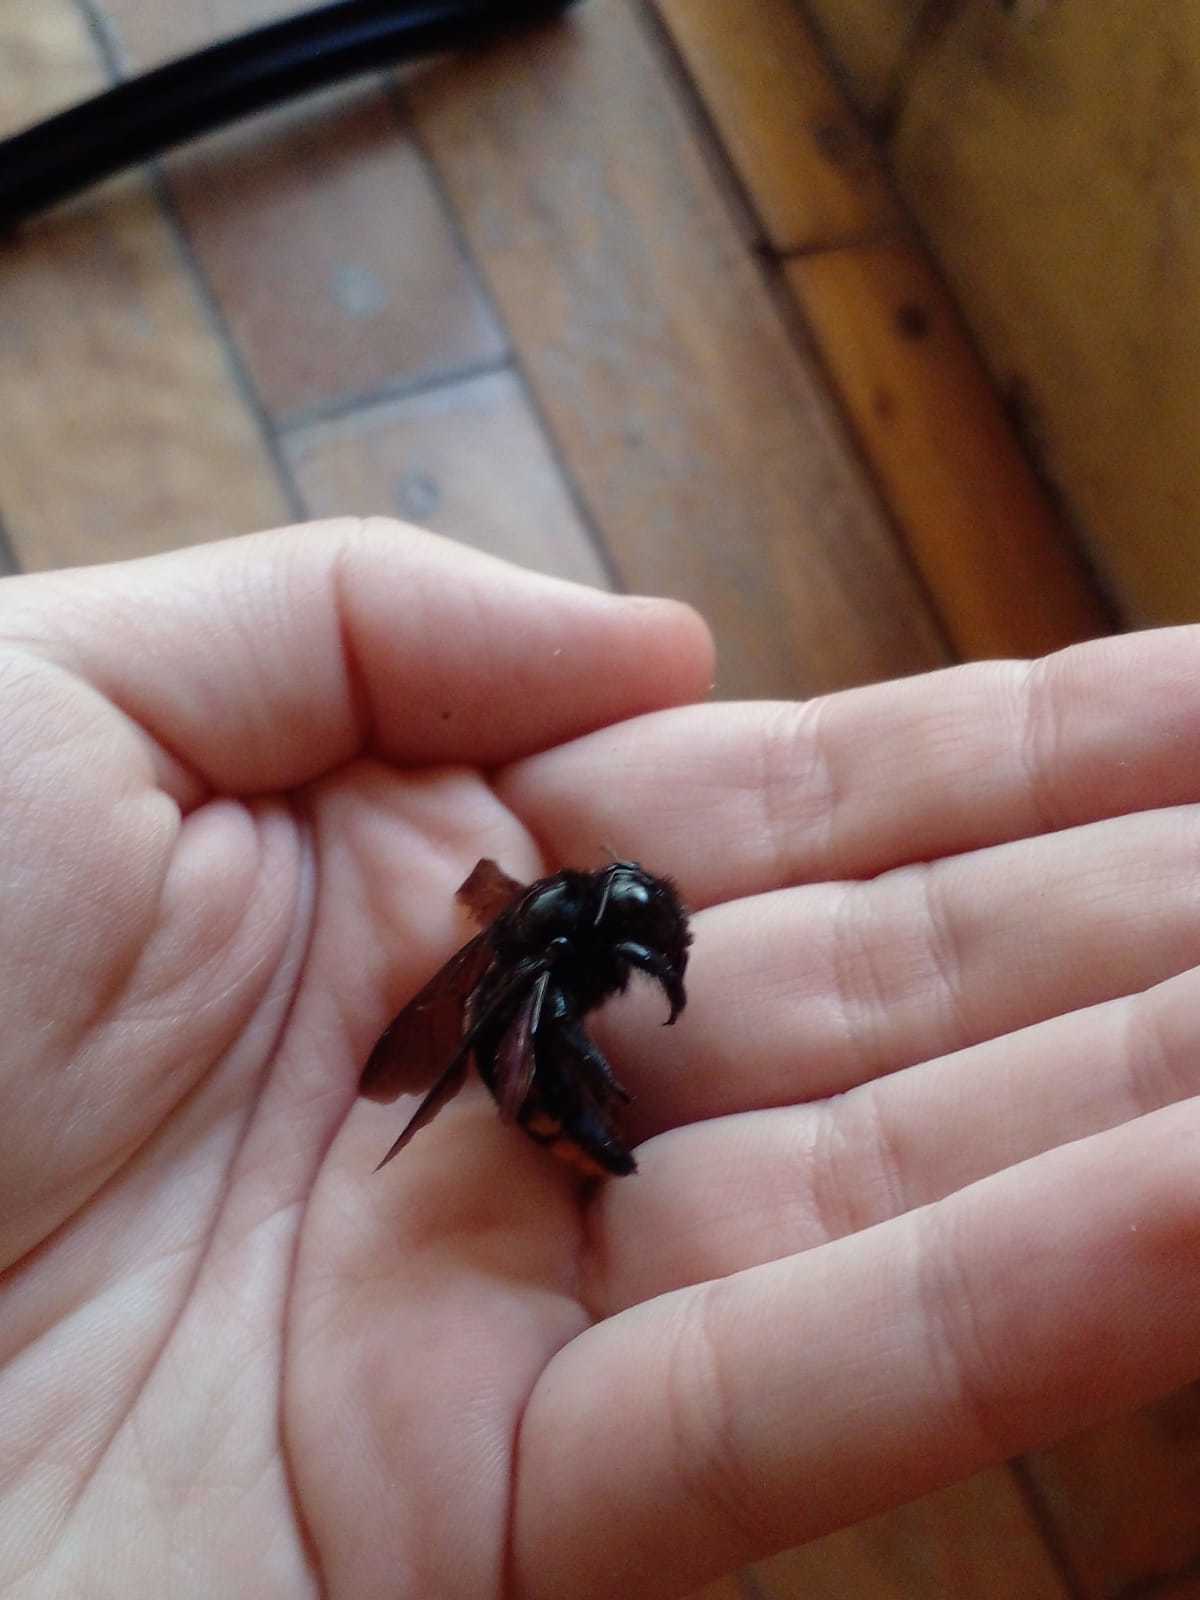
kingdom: Animalia
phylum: Arthropoda
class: Insecta
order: Hymenoptera
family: Apidae
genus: Xylocopa
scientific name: Xylocopa augusti
